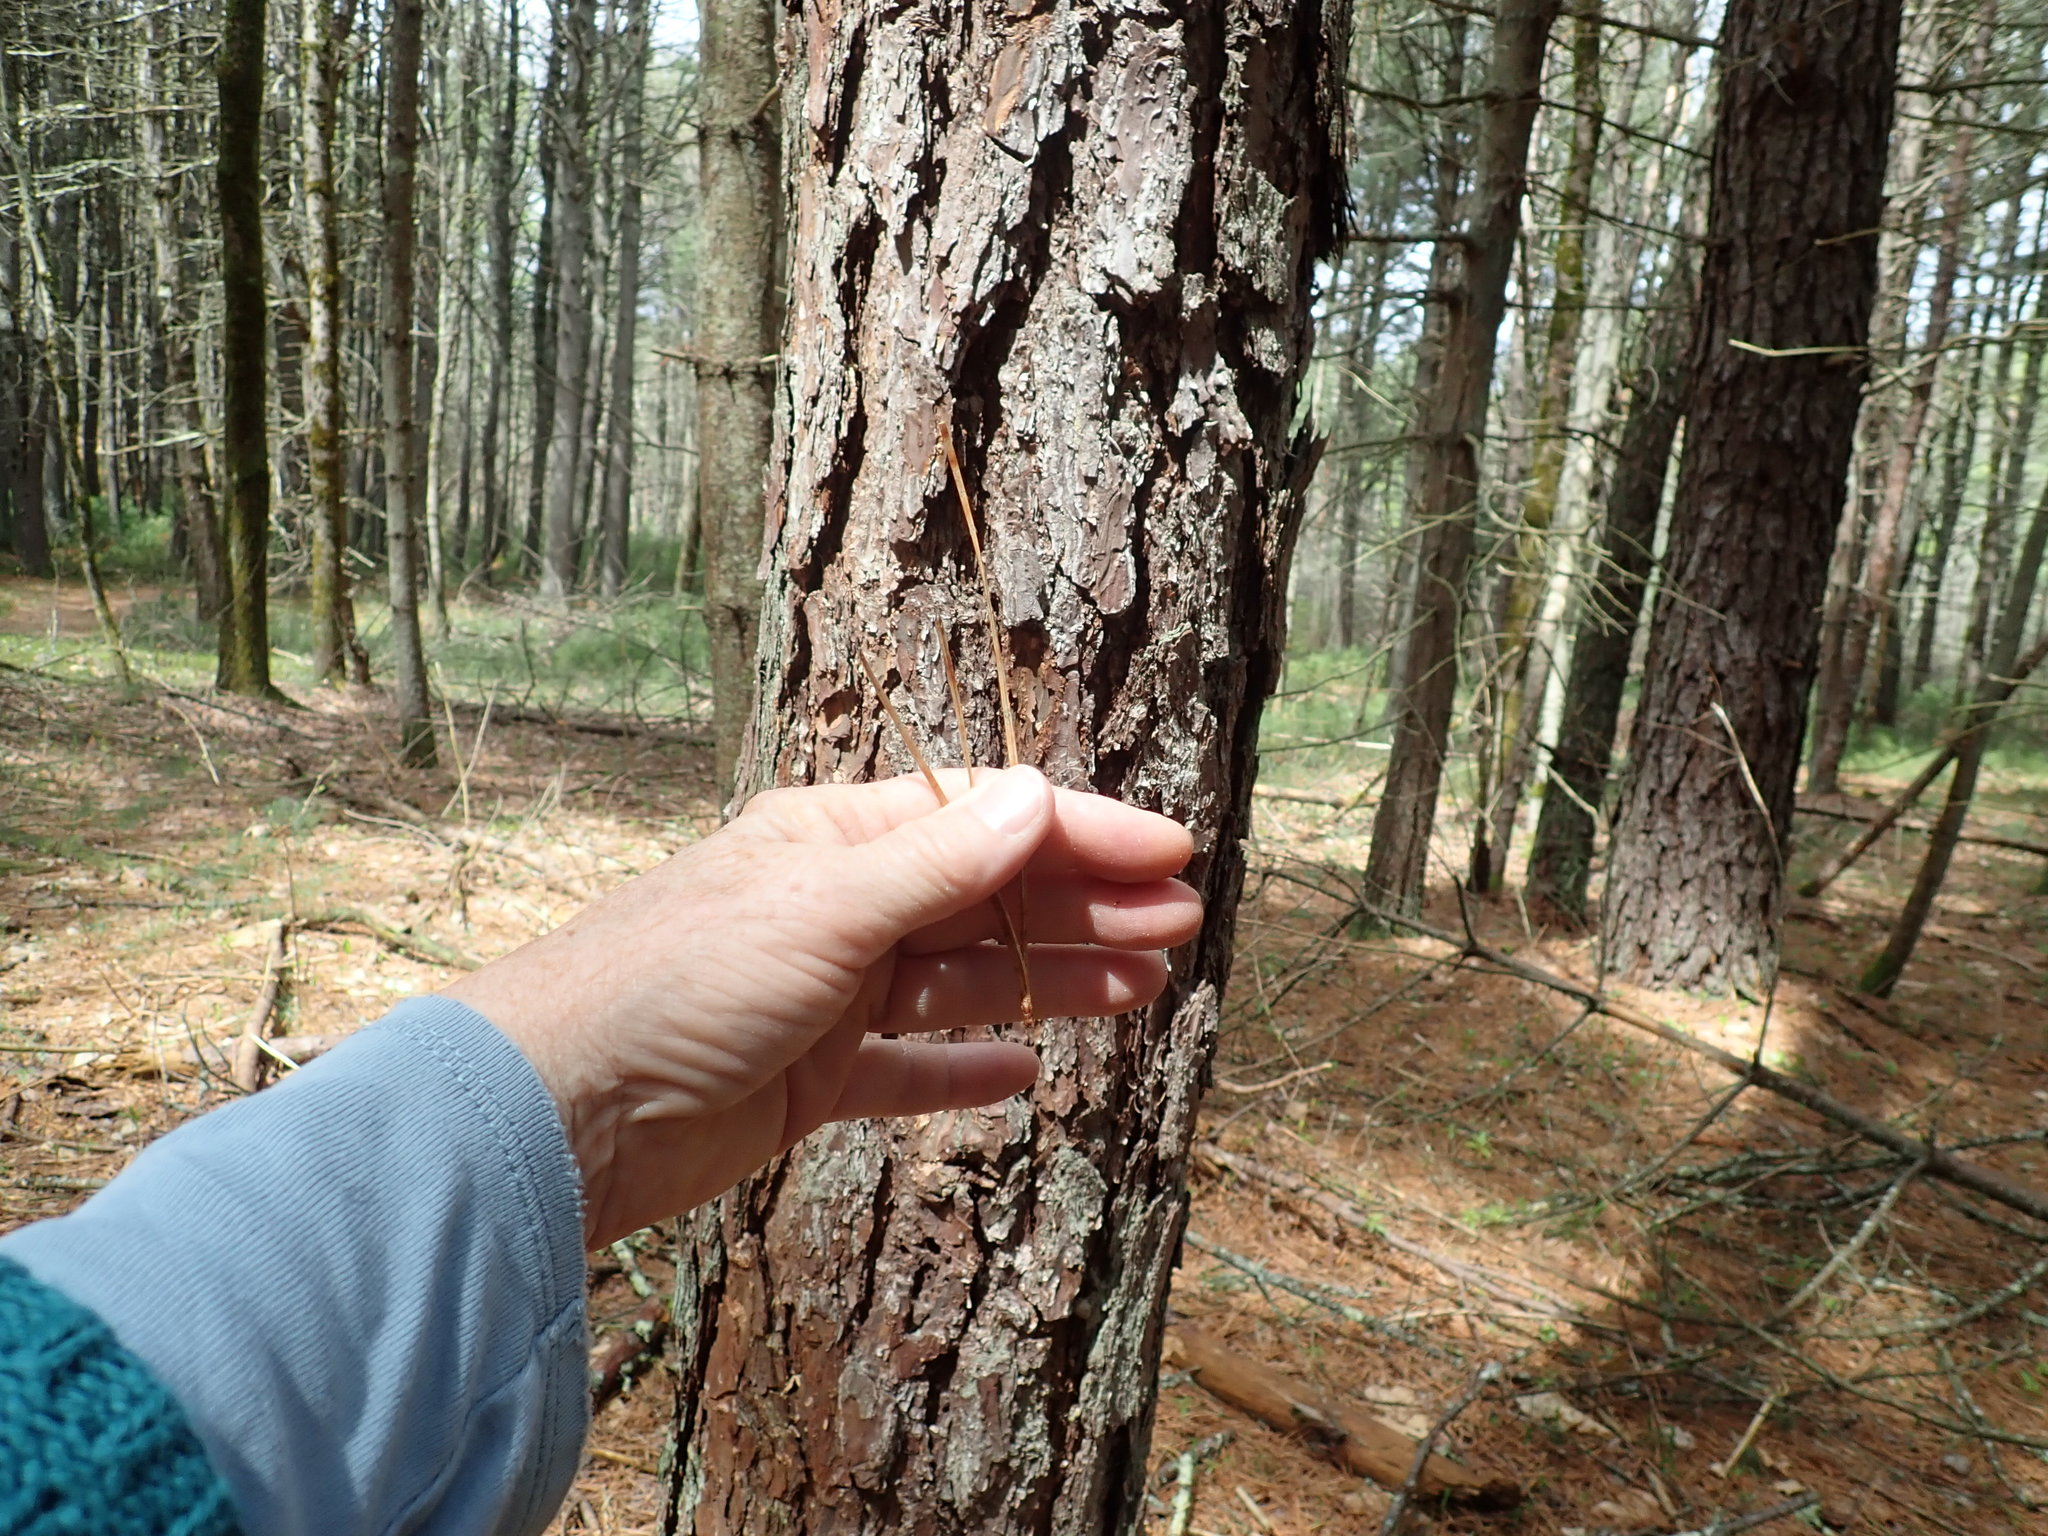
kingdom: Plantae
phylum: Tracheophyta
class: Pinopsida
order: Pinales
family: Pinaceae
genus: Pinus
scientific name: Pinus rigida
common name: Pitch pine
